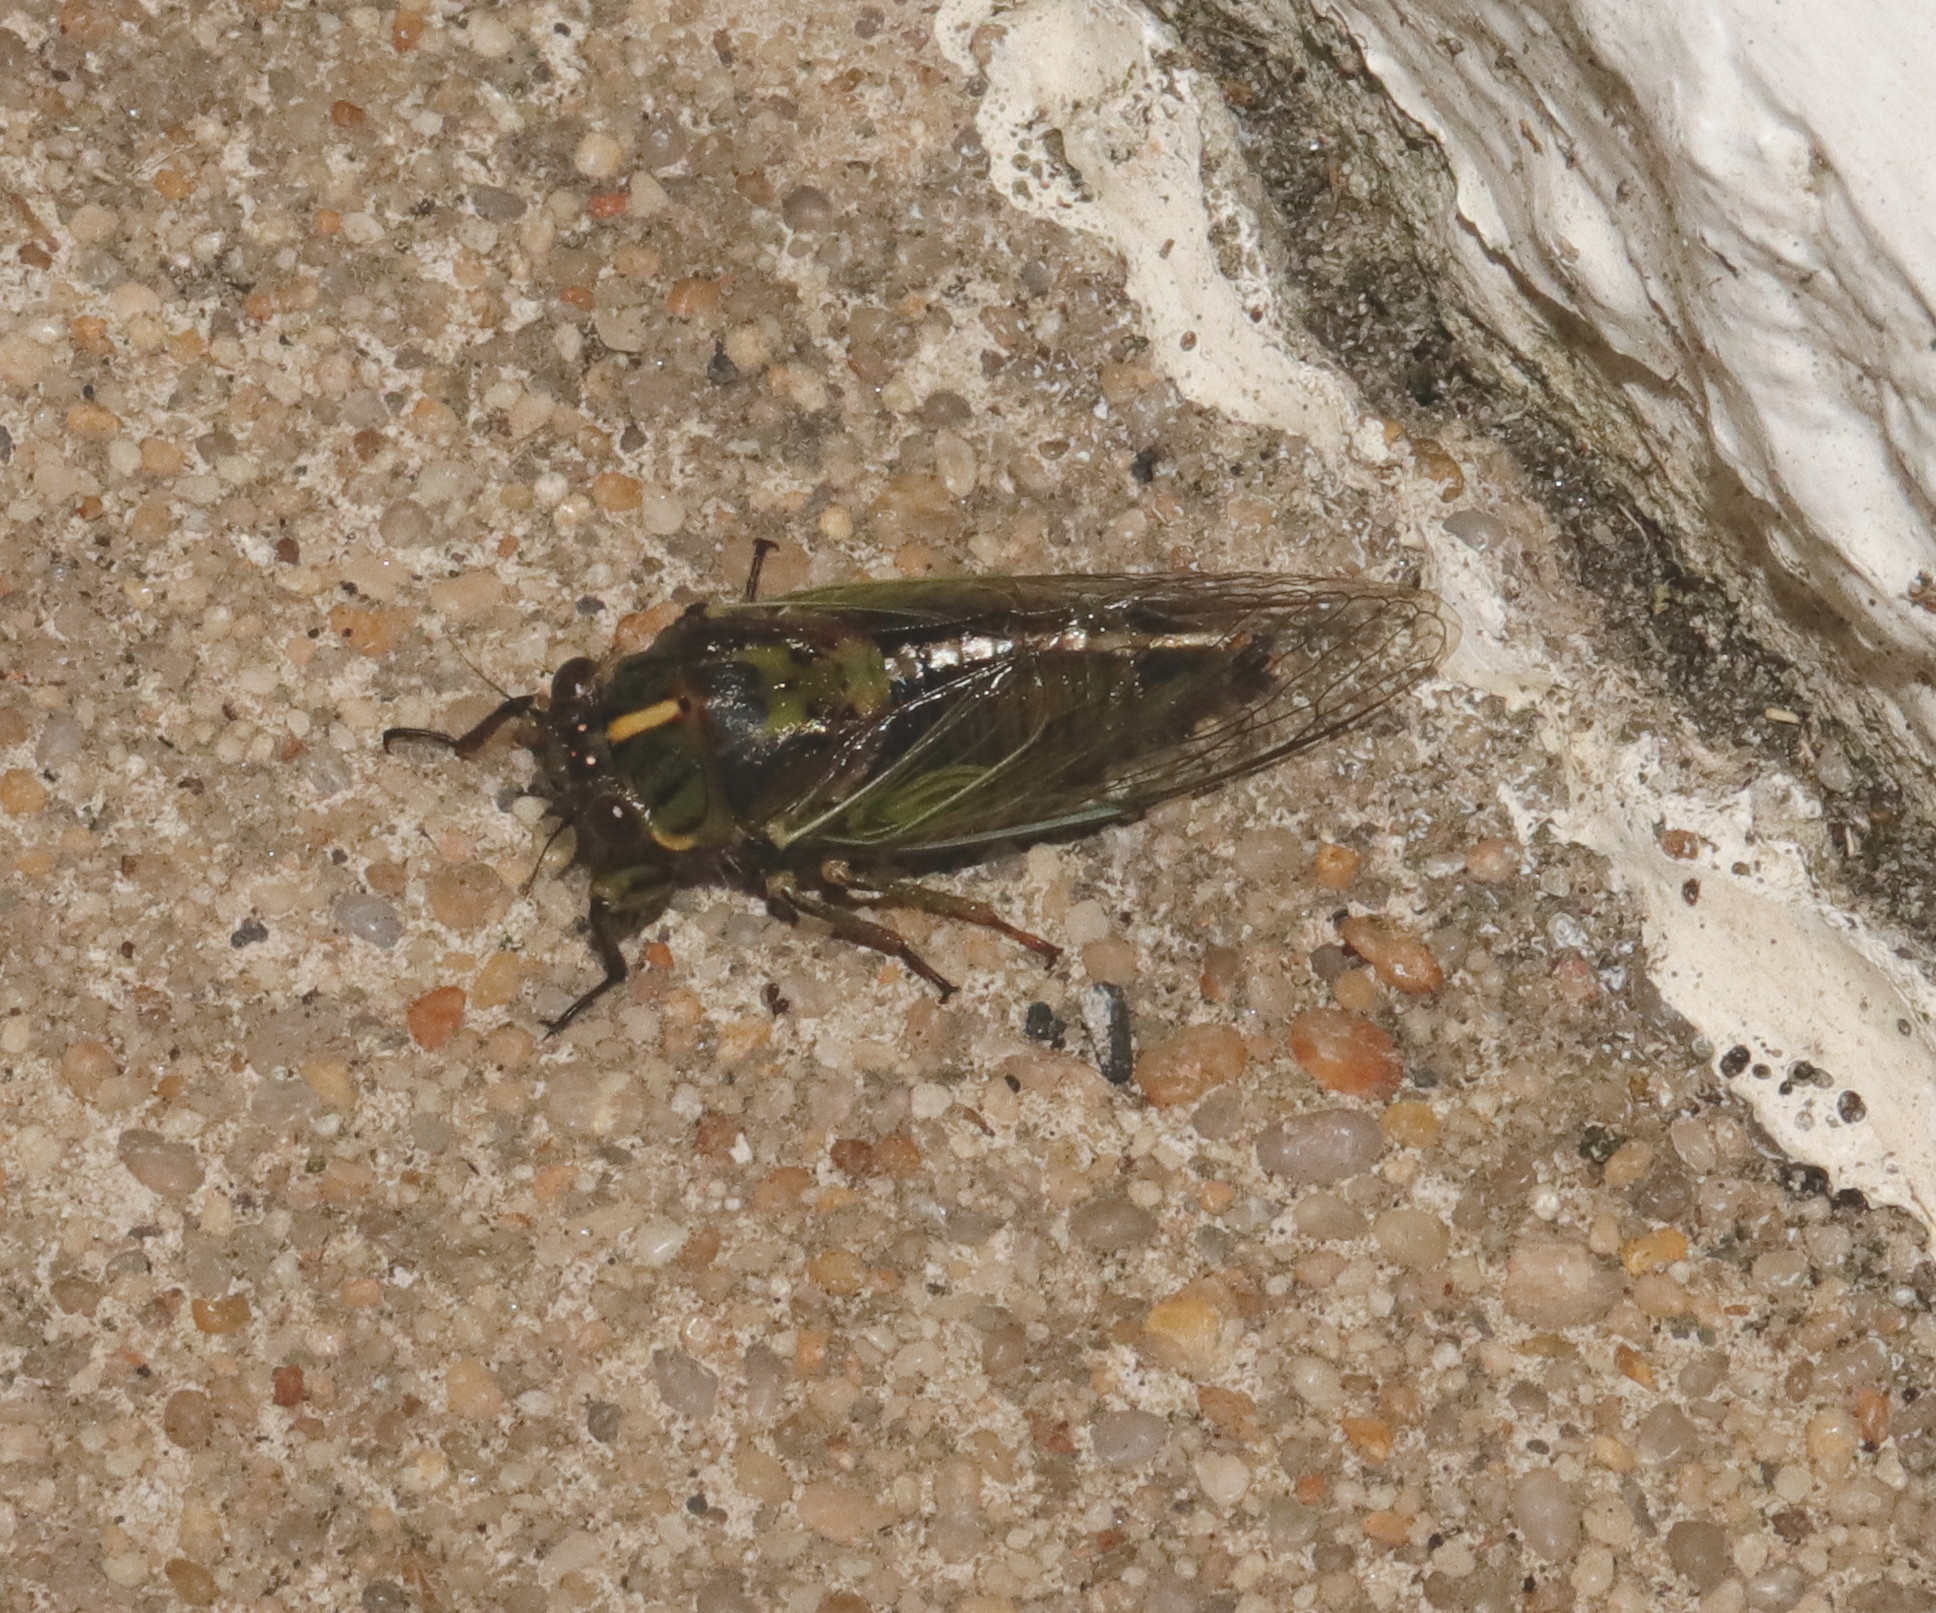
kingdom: Animalia
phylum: Arthropoda
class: Insecta
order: Hemiptera
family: Cicadidae
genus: Kikihia
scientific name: Kikihia rosea
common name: Murihiku cicada
